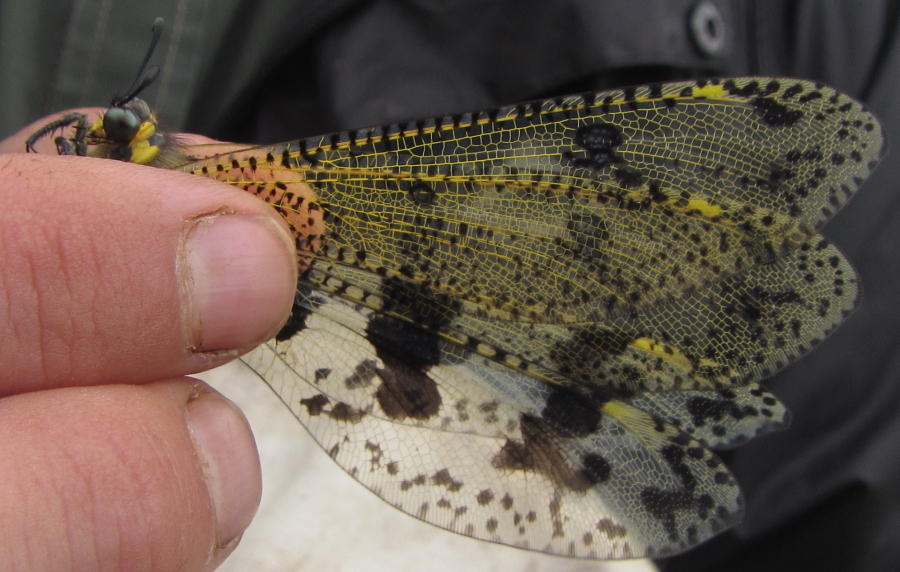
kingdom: Animalia
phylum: Arthropoda
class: Insecta
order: Neuroptera
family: Myrmeleontidae
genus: Palpares
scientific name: Palpares caffer
